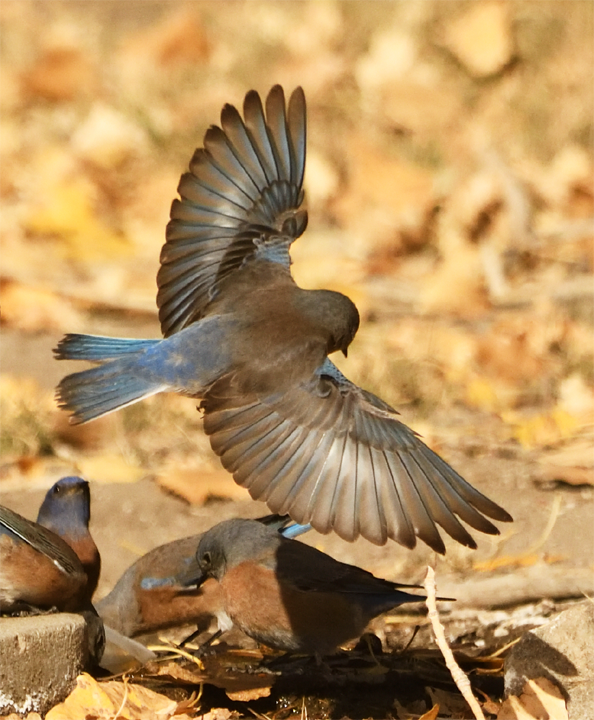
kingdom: Animalia
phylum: Chordata
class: Aves
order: Passeriformes
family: Turdidae
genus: Sialia
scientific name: Sialia mexicana
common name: Western bluebird
